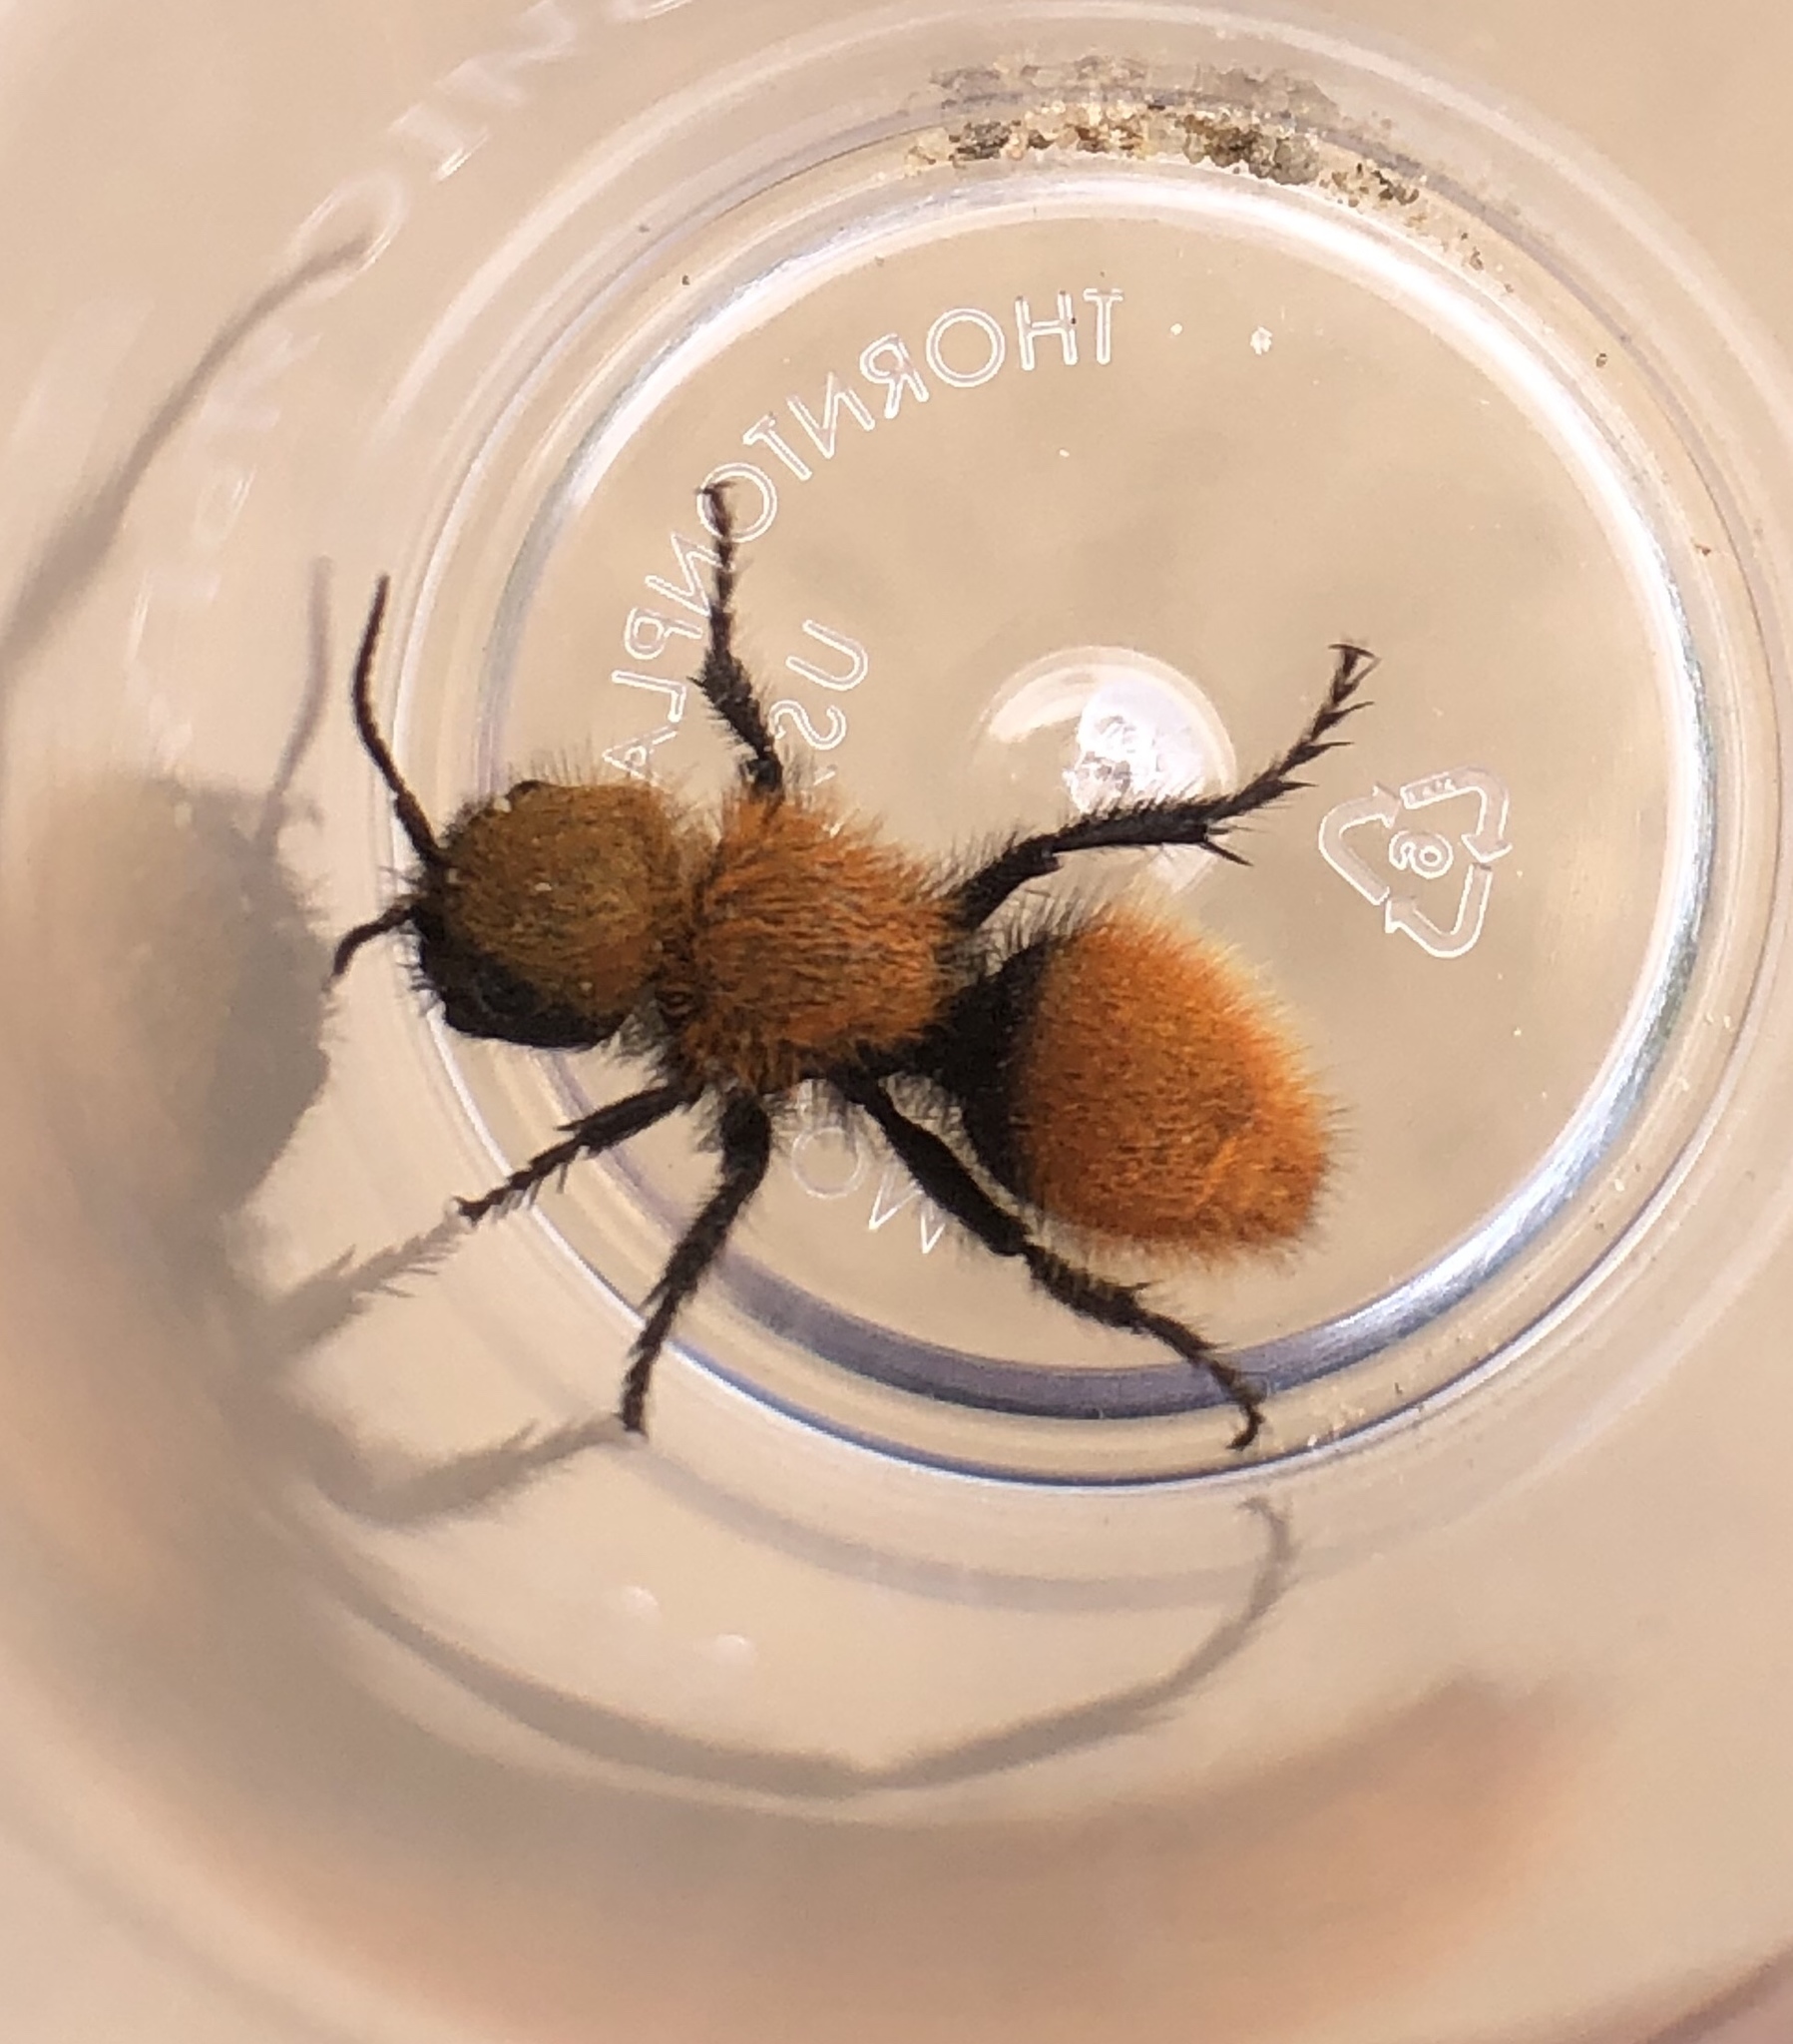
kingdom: Animalia
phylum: Arthropoda
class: Insecta
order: Hymenoptera
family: Mutillidae
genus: Dasymutilla
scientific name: Dasymutilla
